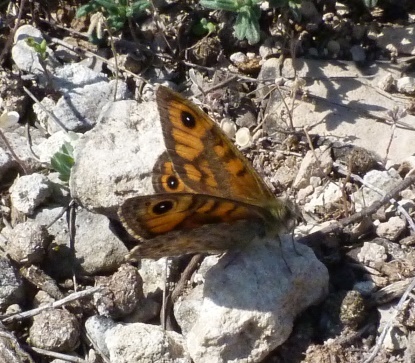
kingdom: Animalia
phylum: Arthropoda
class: Insecta
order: Lepidoptera
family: Nymphalidae
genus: Pararge
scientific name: Pararge Lasiommata megera
